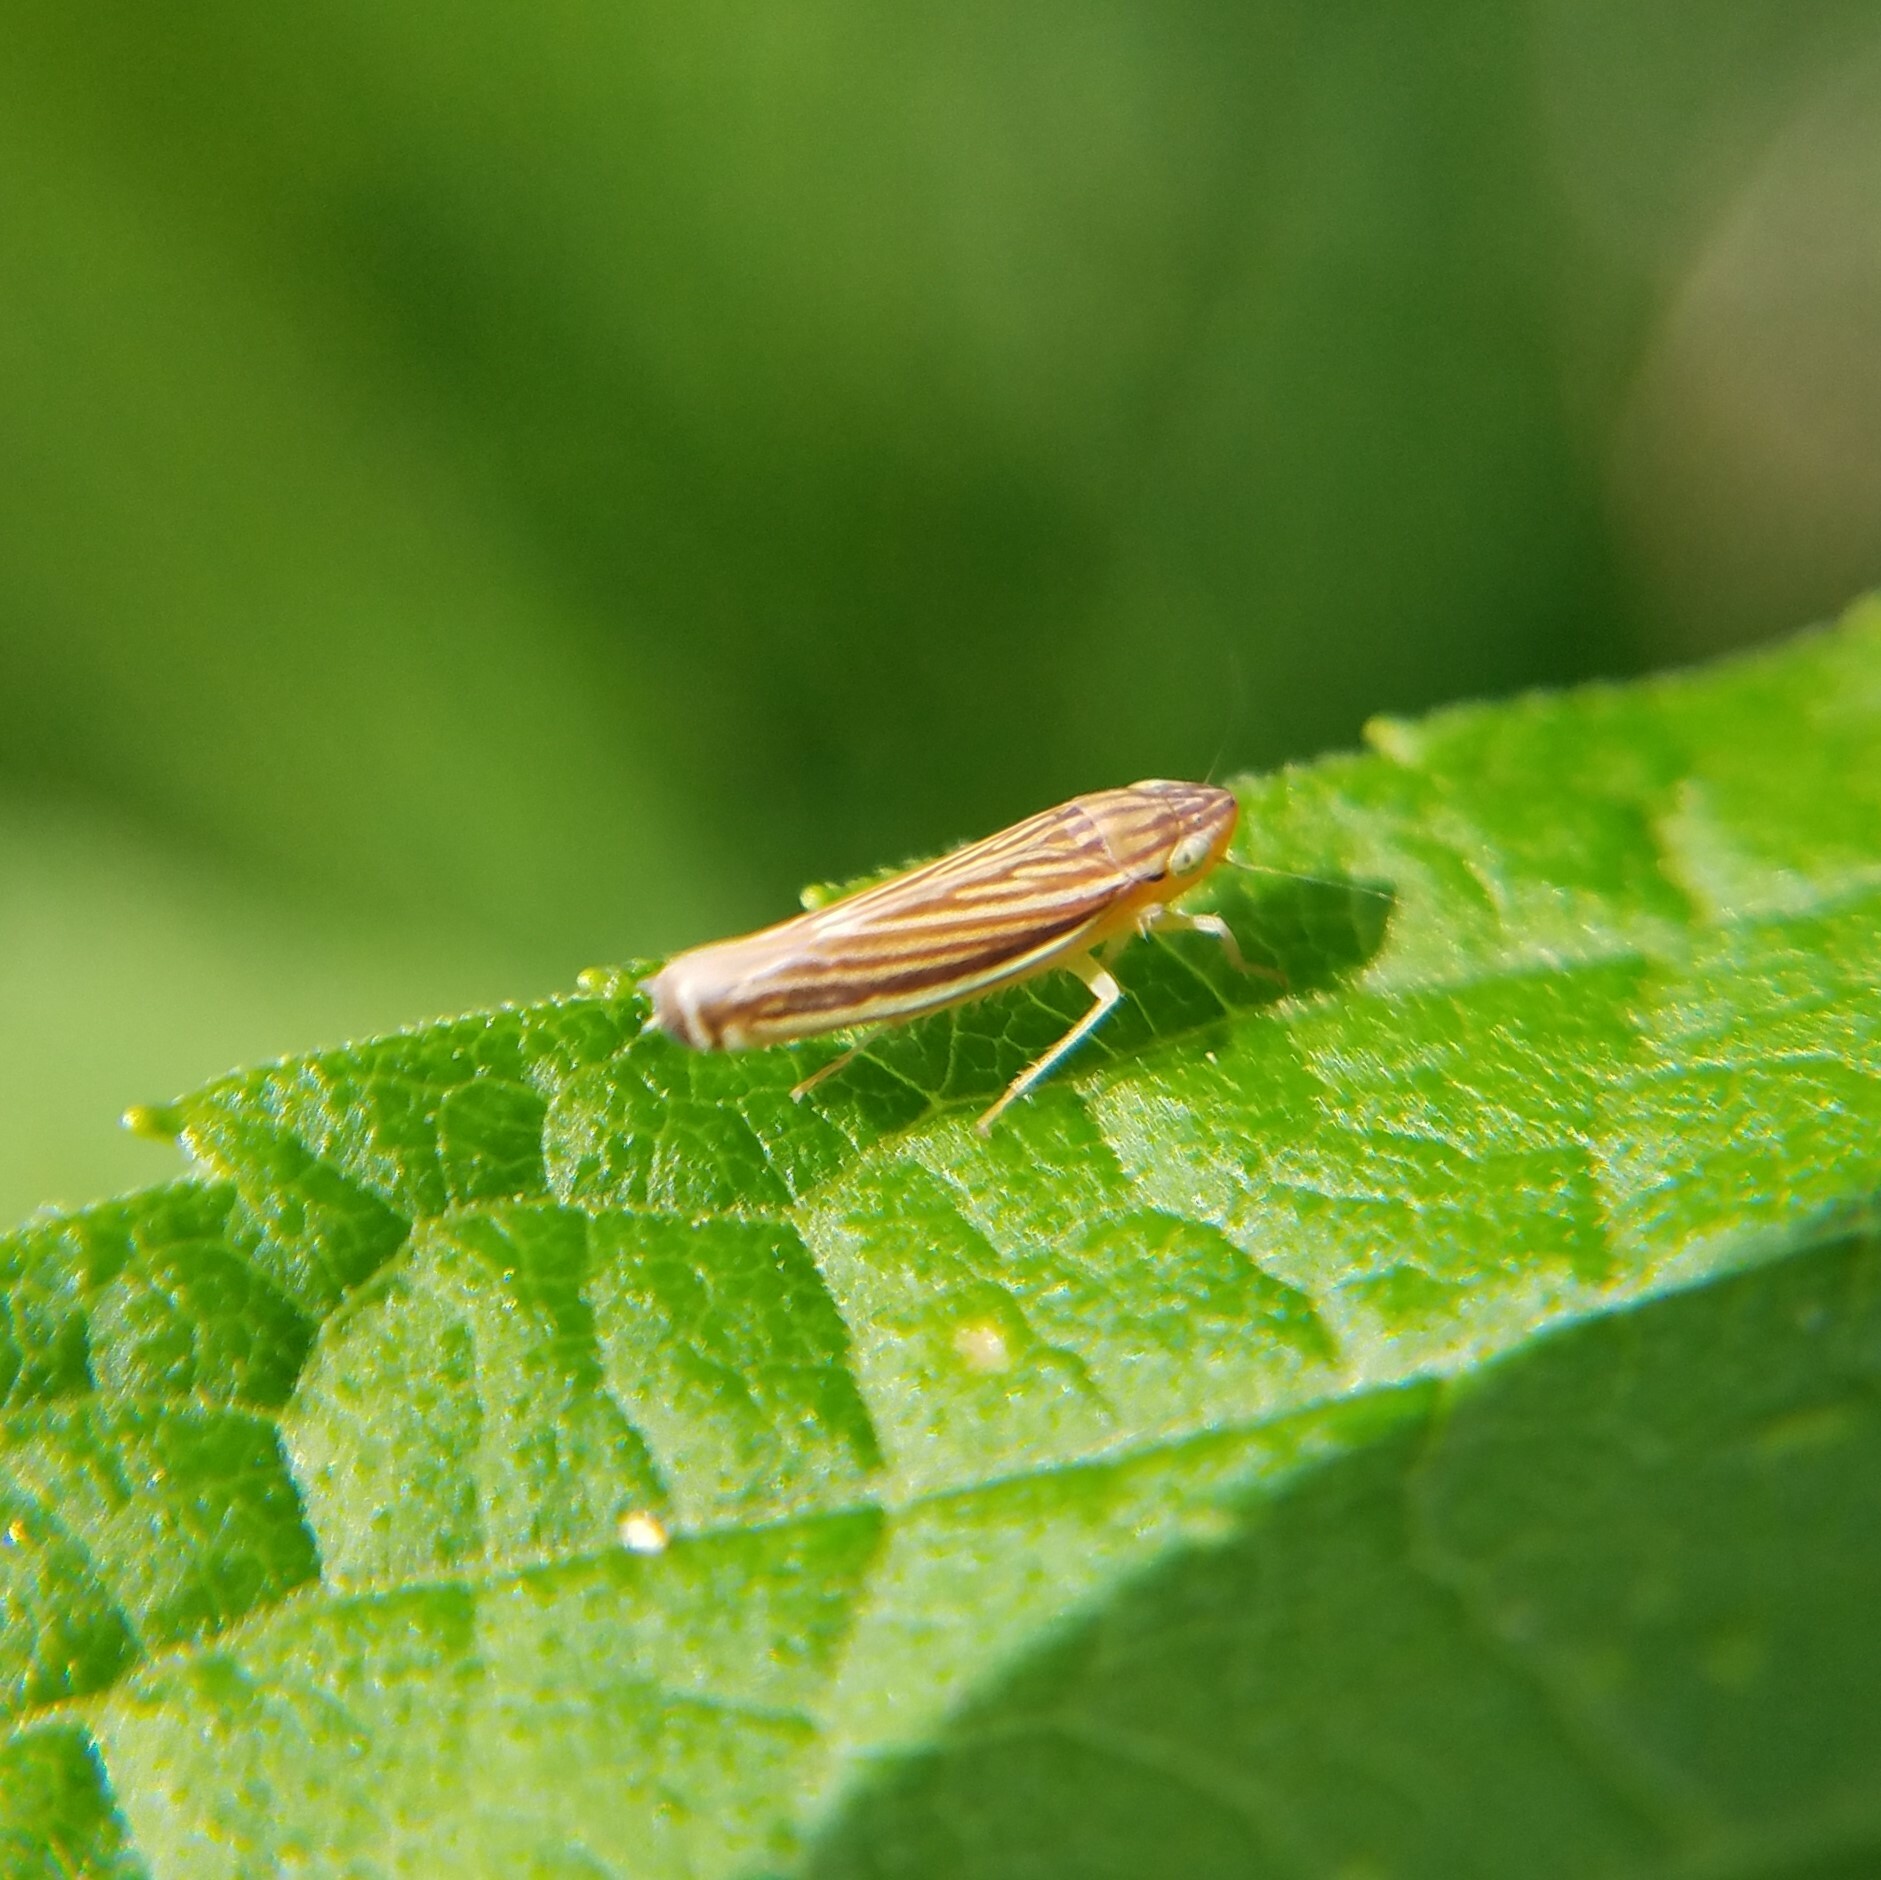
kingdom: Animalia
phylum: Arthropoda
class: Insecta
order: Hemiptera
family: Cicadellidae
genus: Sibovia
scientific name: Sibovia occatoria
